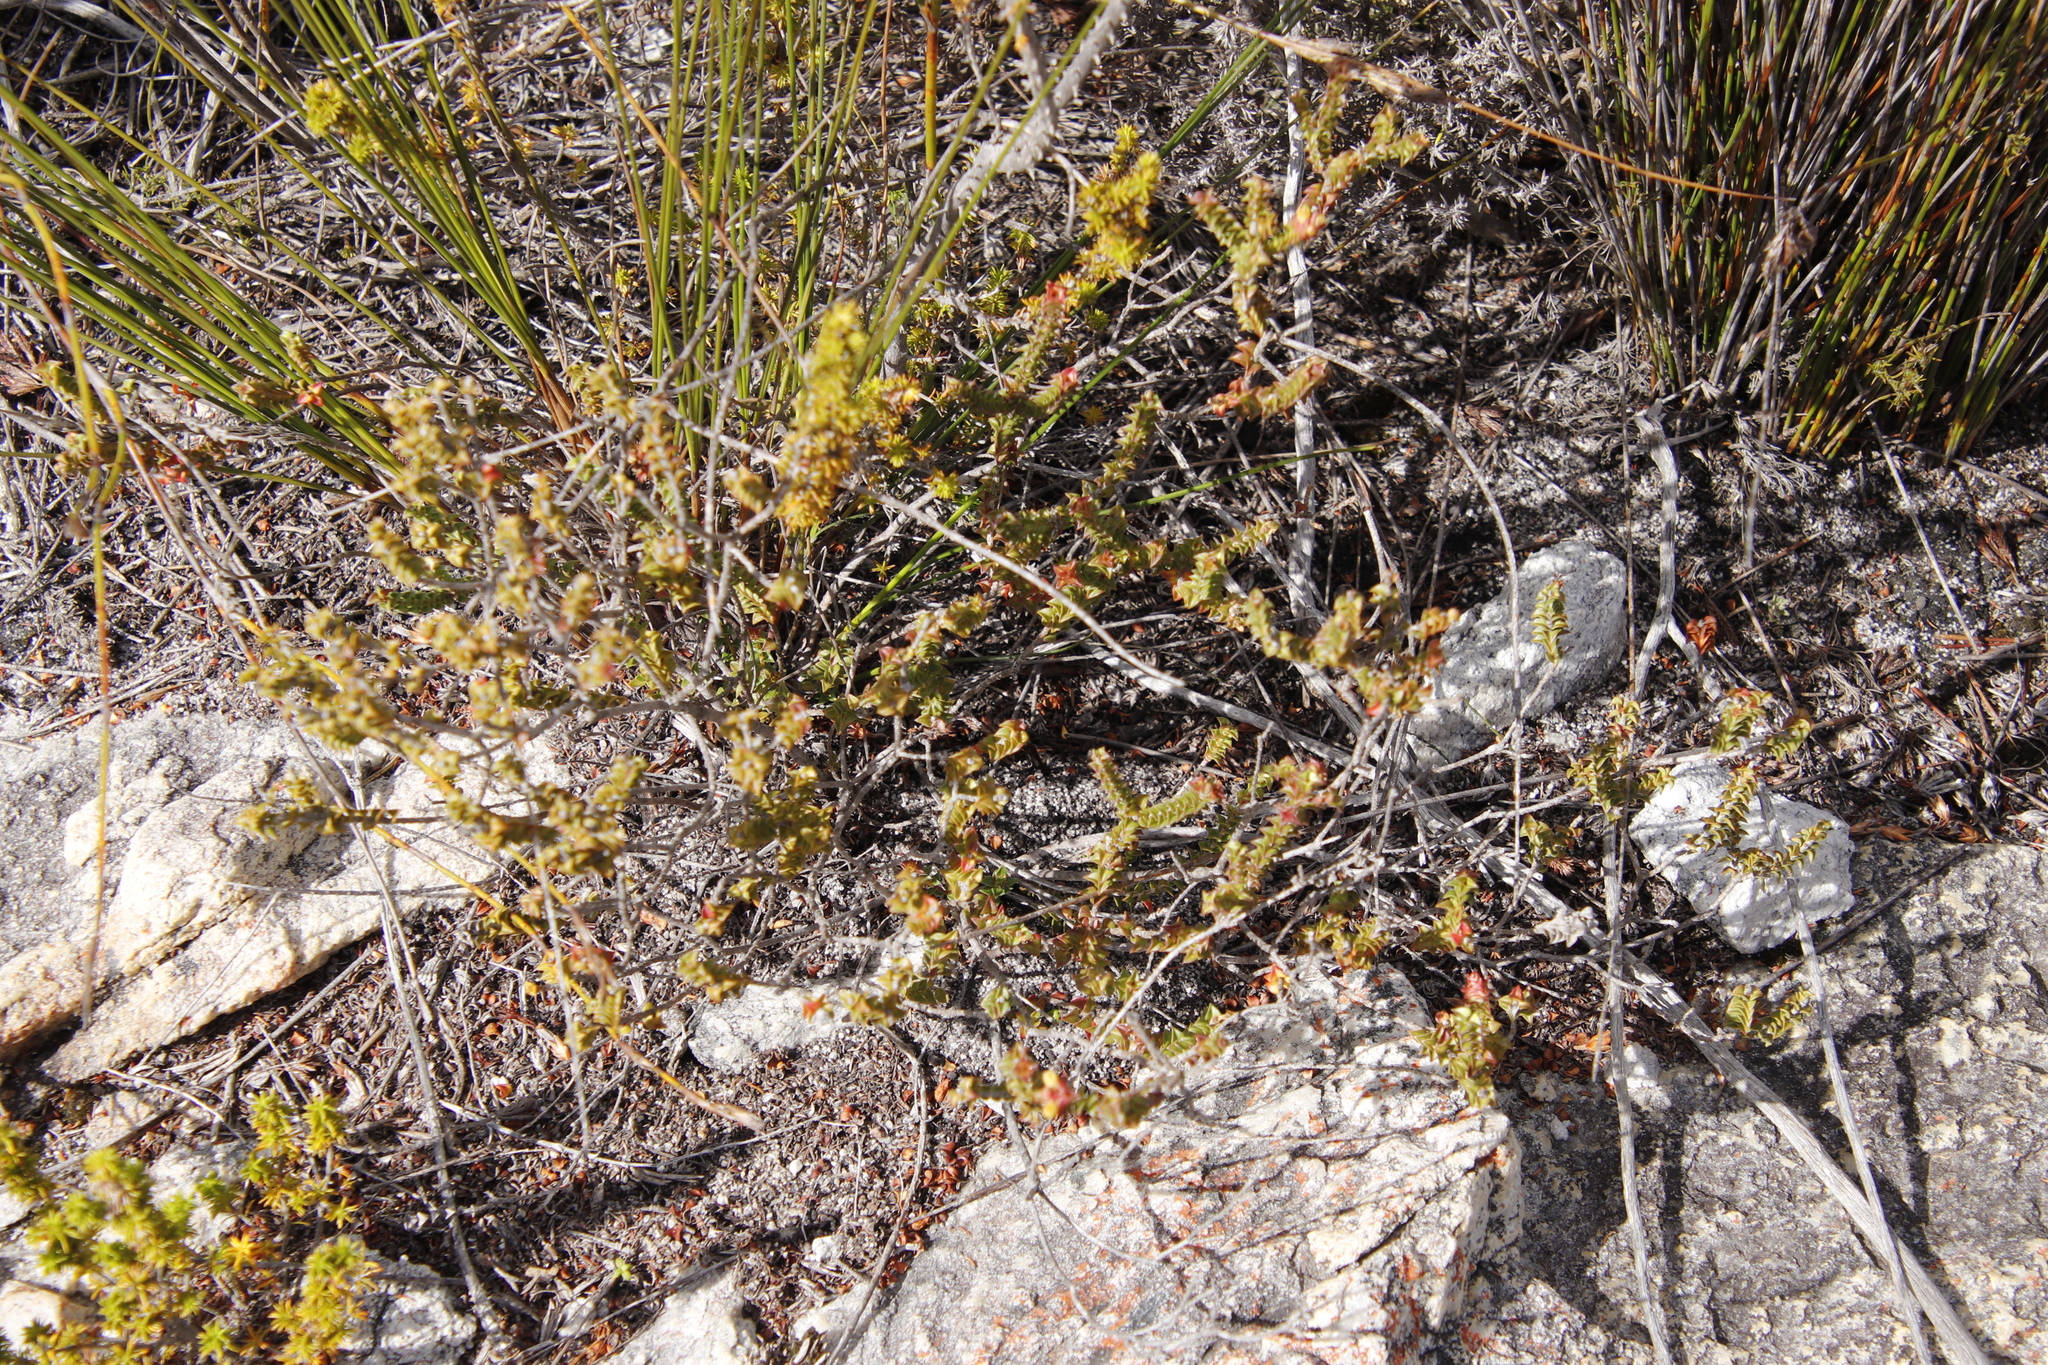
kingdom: Plantae
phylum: Tracheophyta
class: Magnoliopsida
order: Myrtales
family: Penaeaceae
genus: Penaea
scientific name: Penaea mucronata
